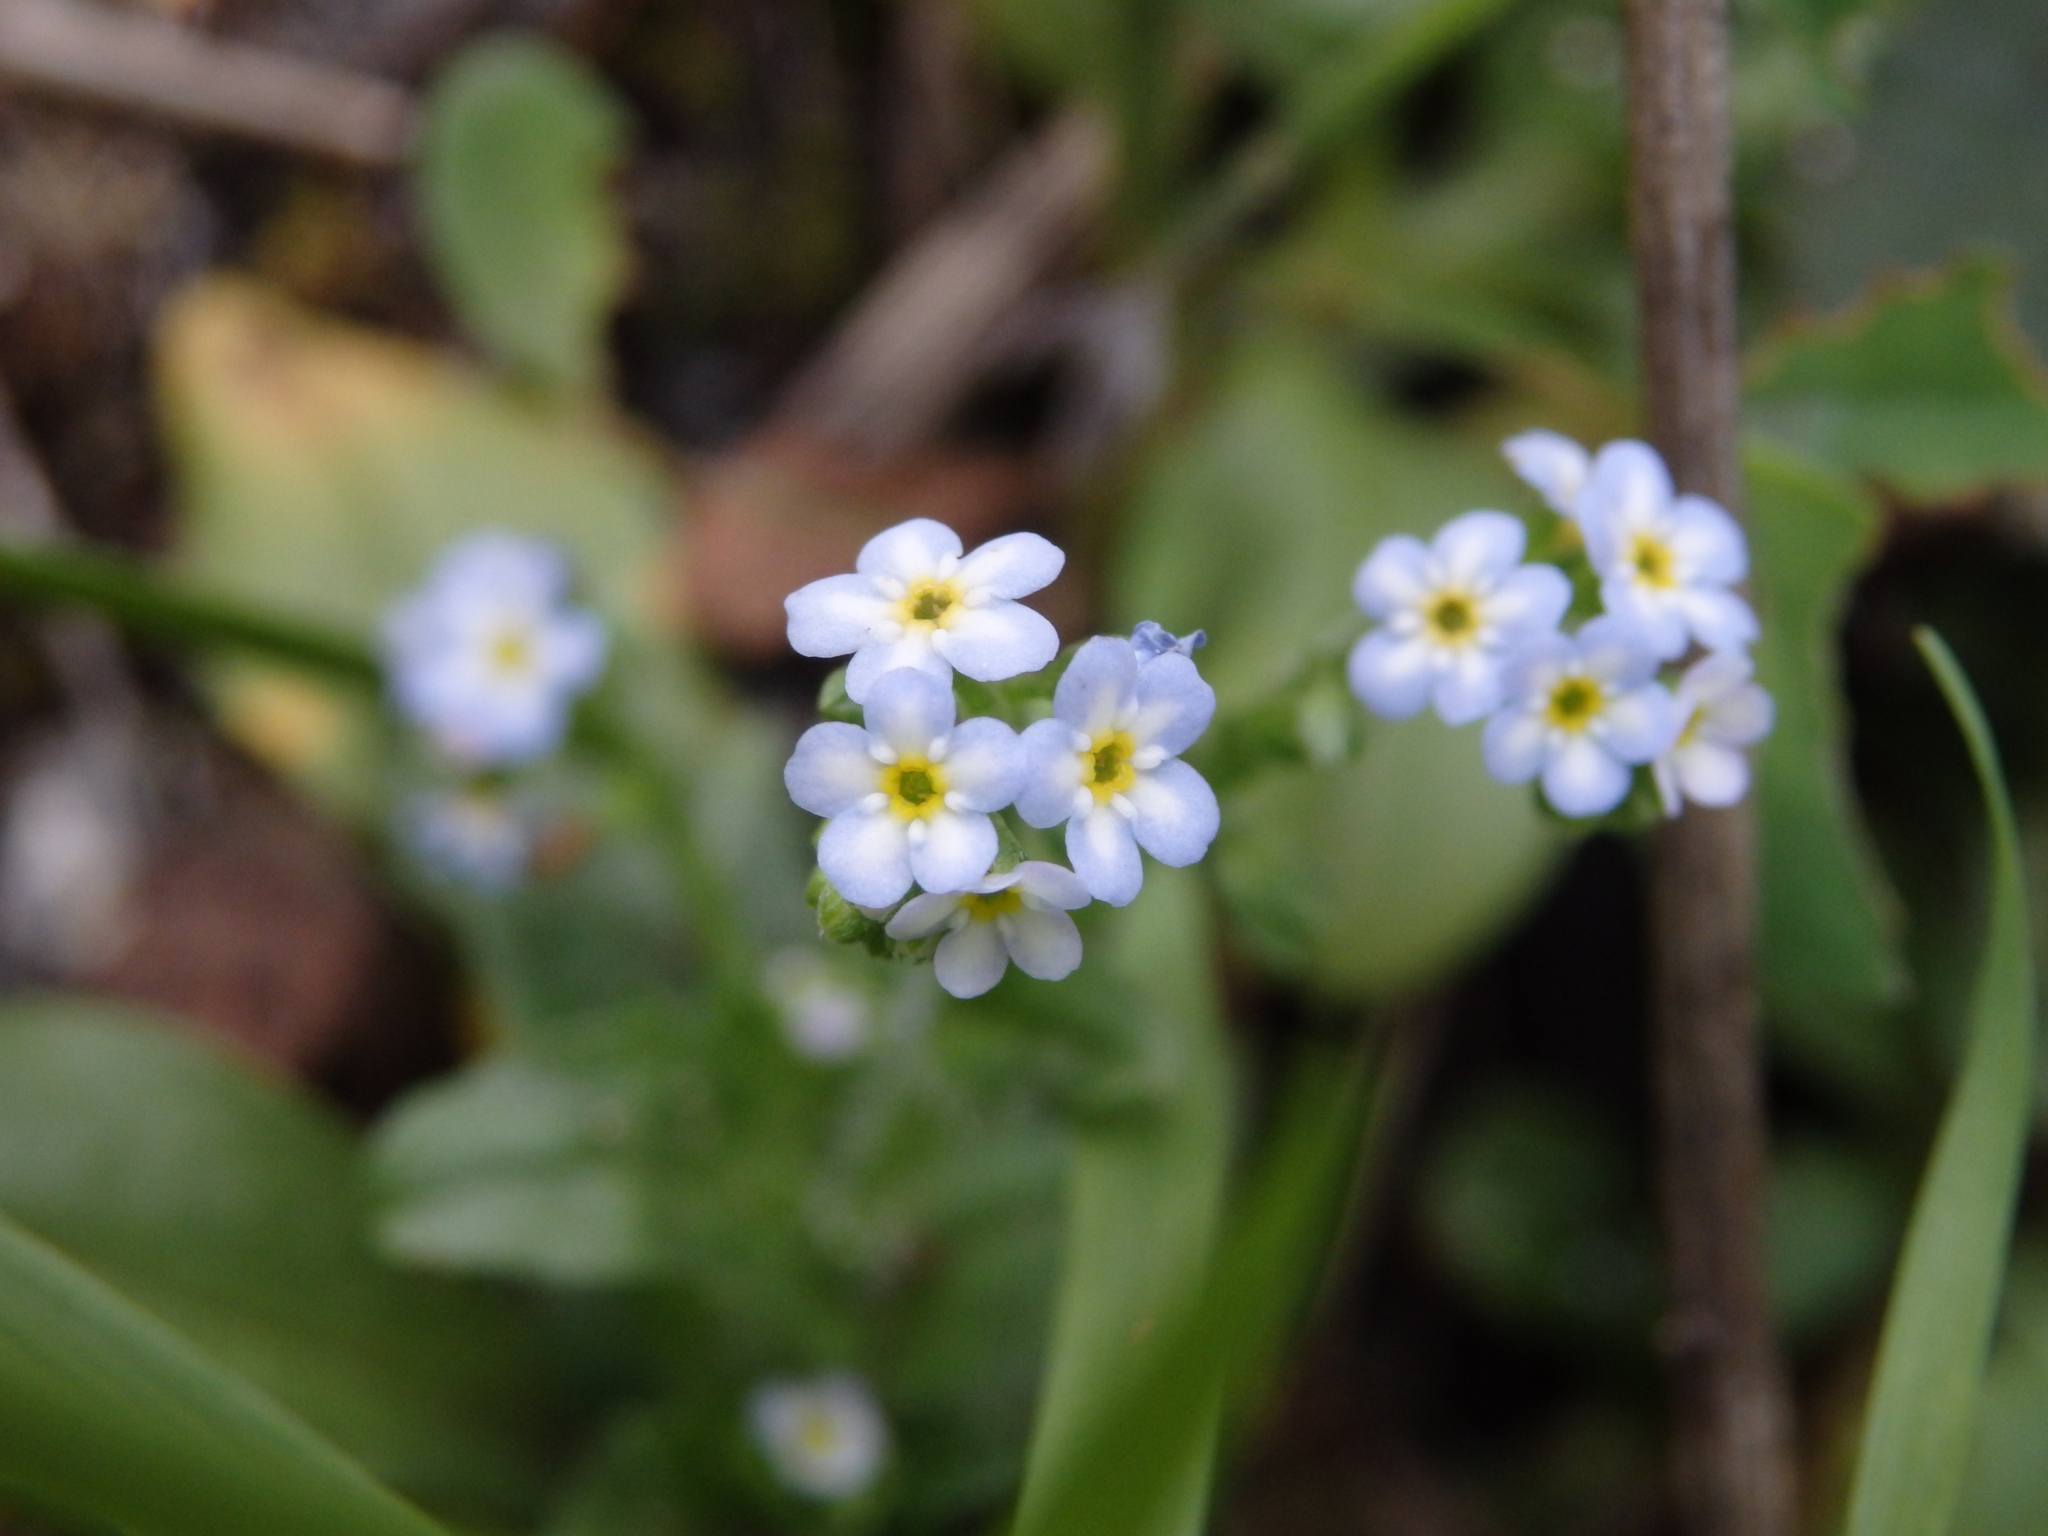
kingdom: Plantae
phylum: Tracheophyta
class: Magnoliopsida
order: Boraginales
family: Boraginaceae
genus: Myosotis
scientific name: Myosotis welwitschii
